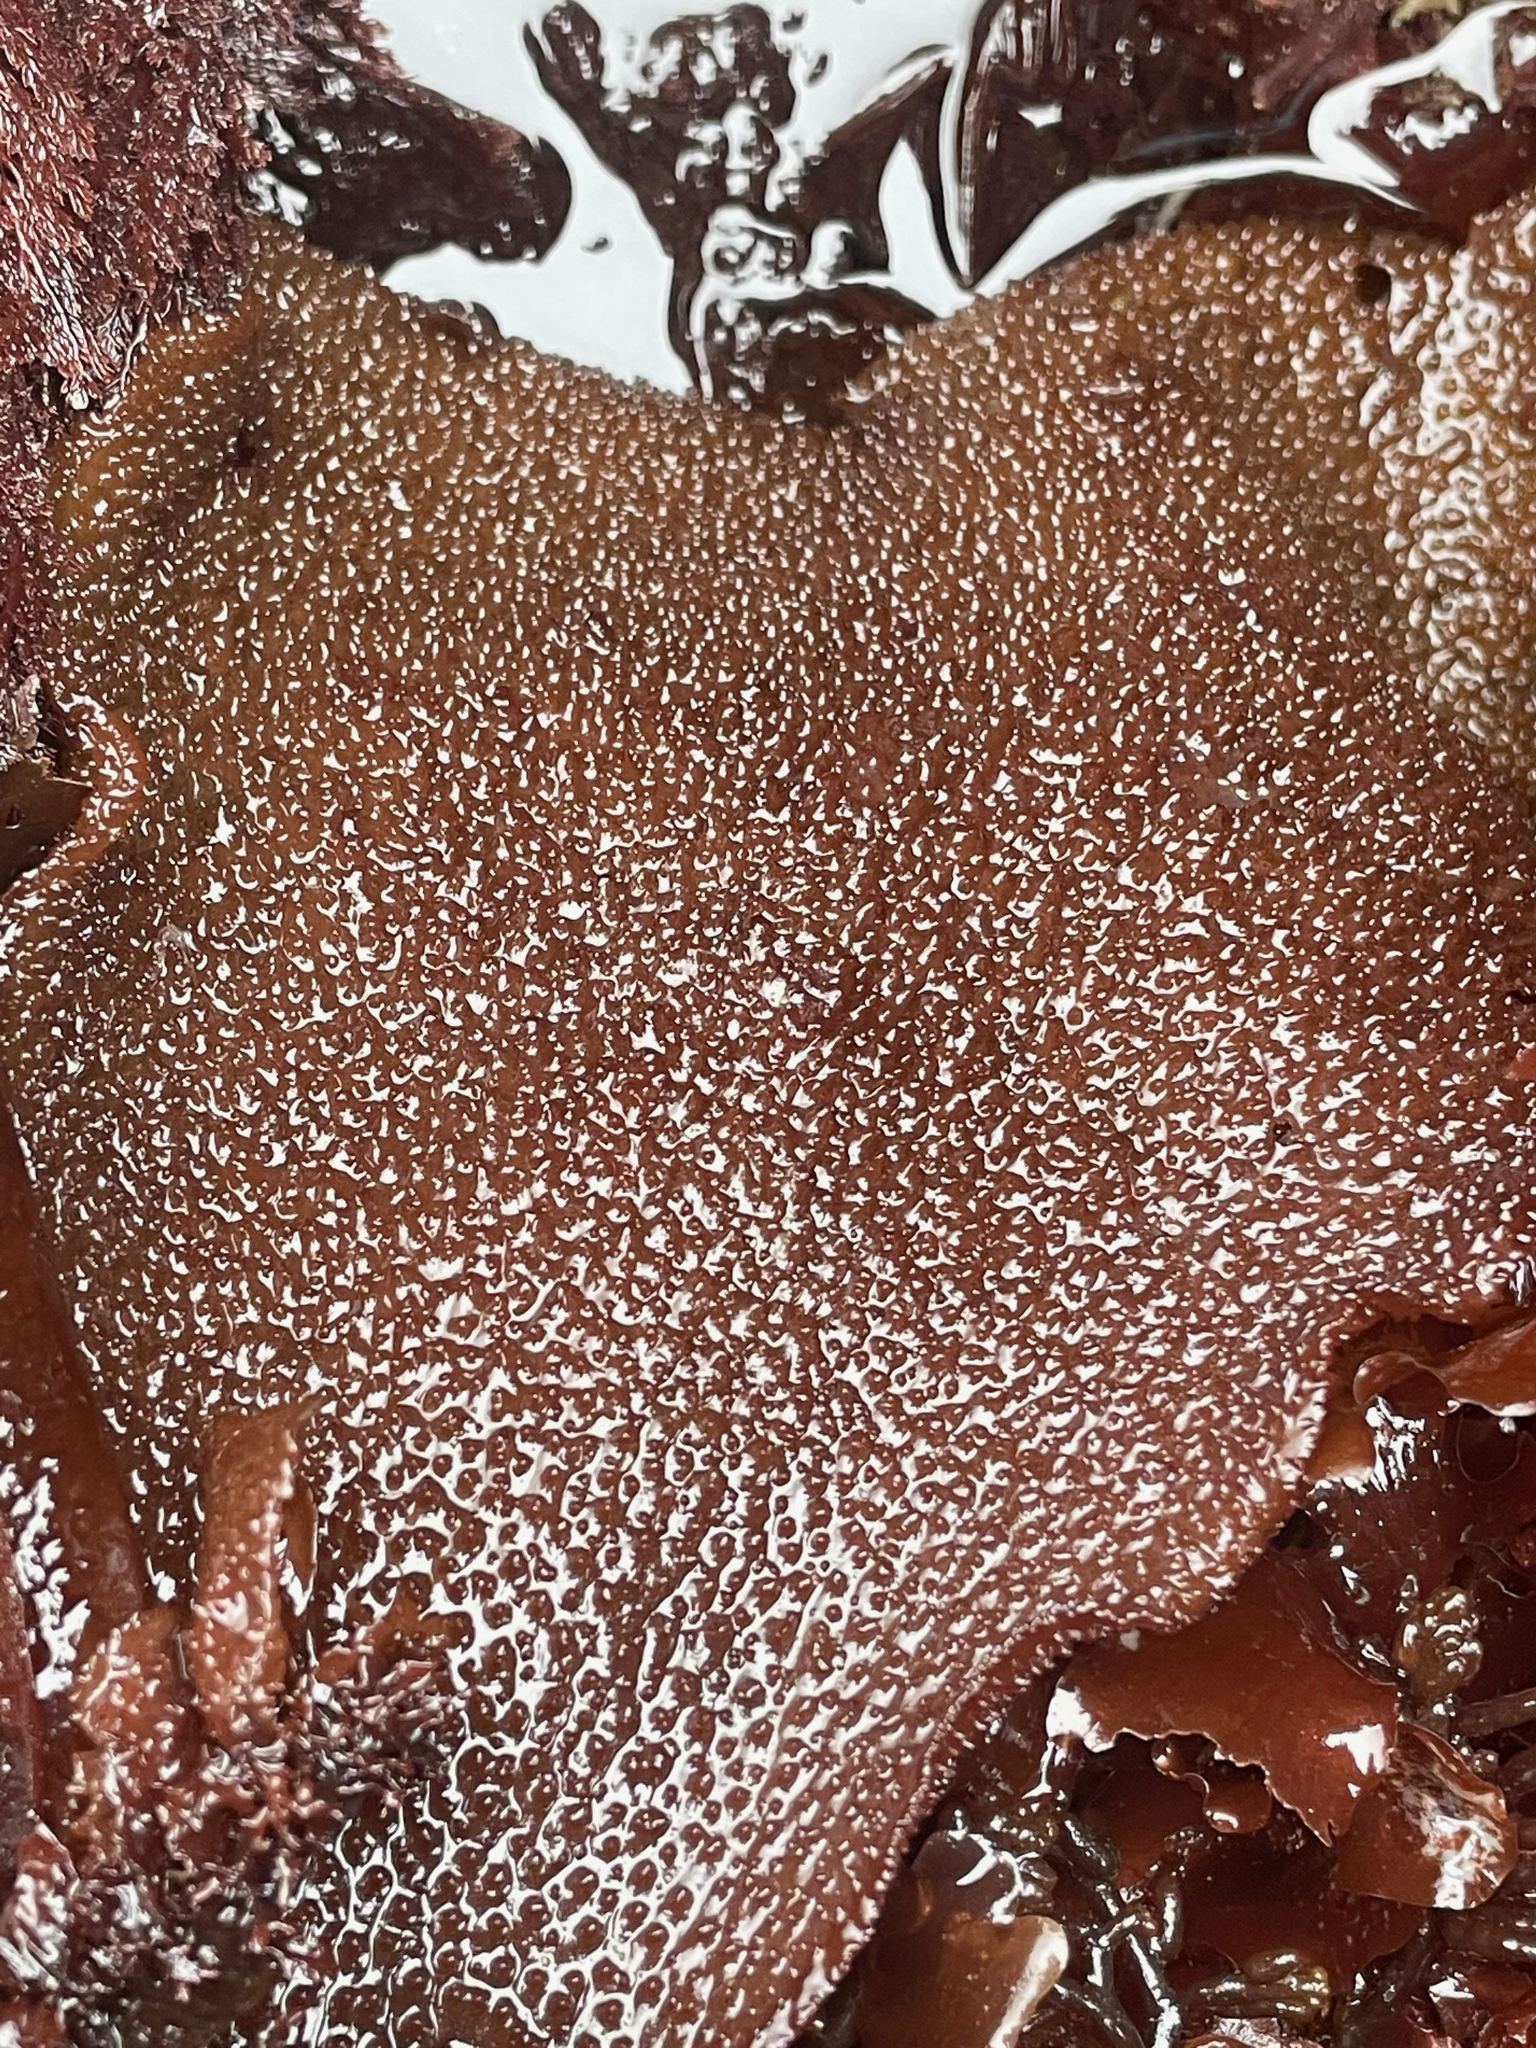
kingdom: Plantae
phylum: Rhodophyta
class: Florideophyceae
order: Gigartinales
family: Gigartinaceae
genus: Chondracanthus
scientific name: Chondracanthus exasperatus
